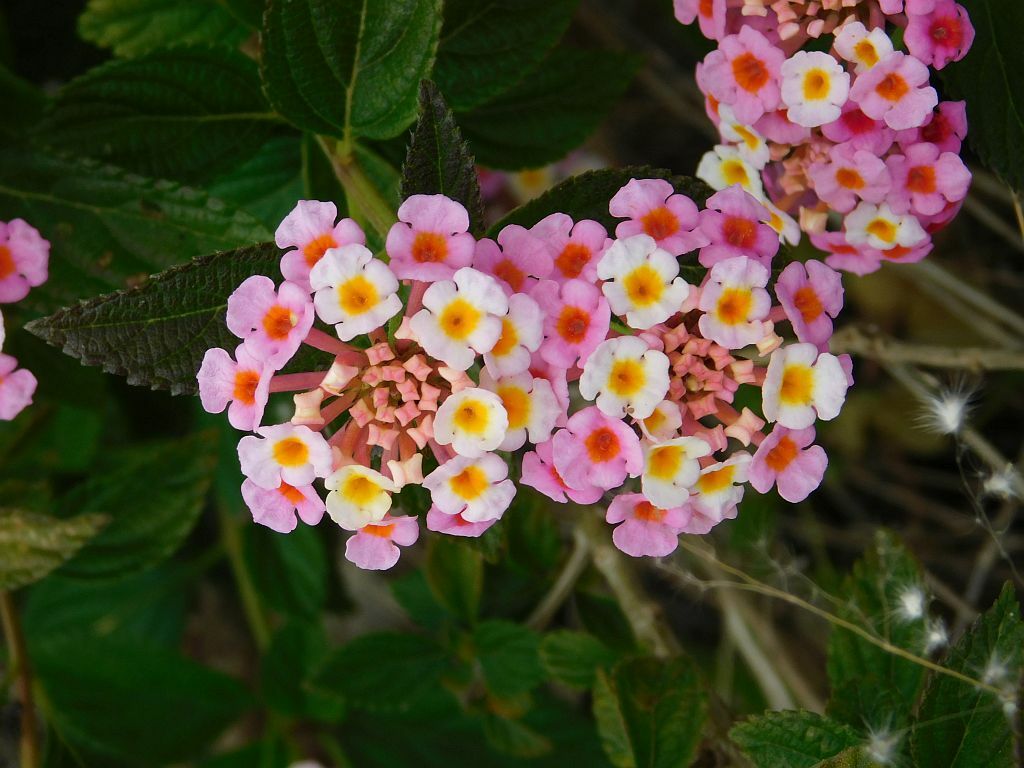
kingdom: Plantae
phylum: Tracheophyta
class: Magnoliopsida
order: Lamiales
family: Verbenaceae
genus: Lantana
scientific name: Lantana camara
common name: Lantana
